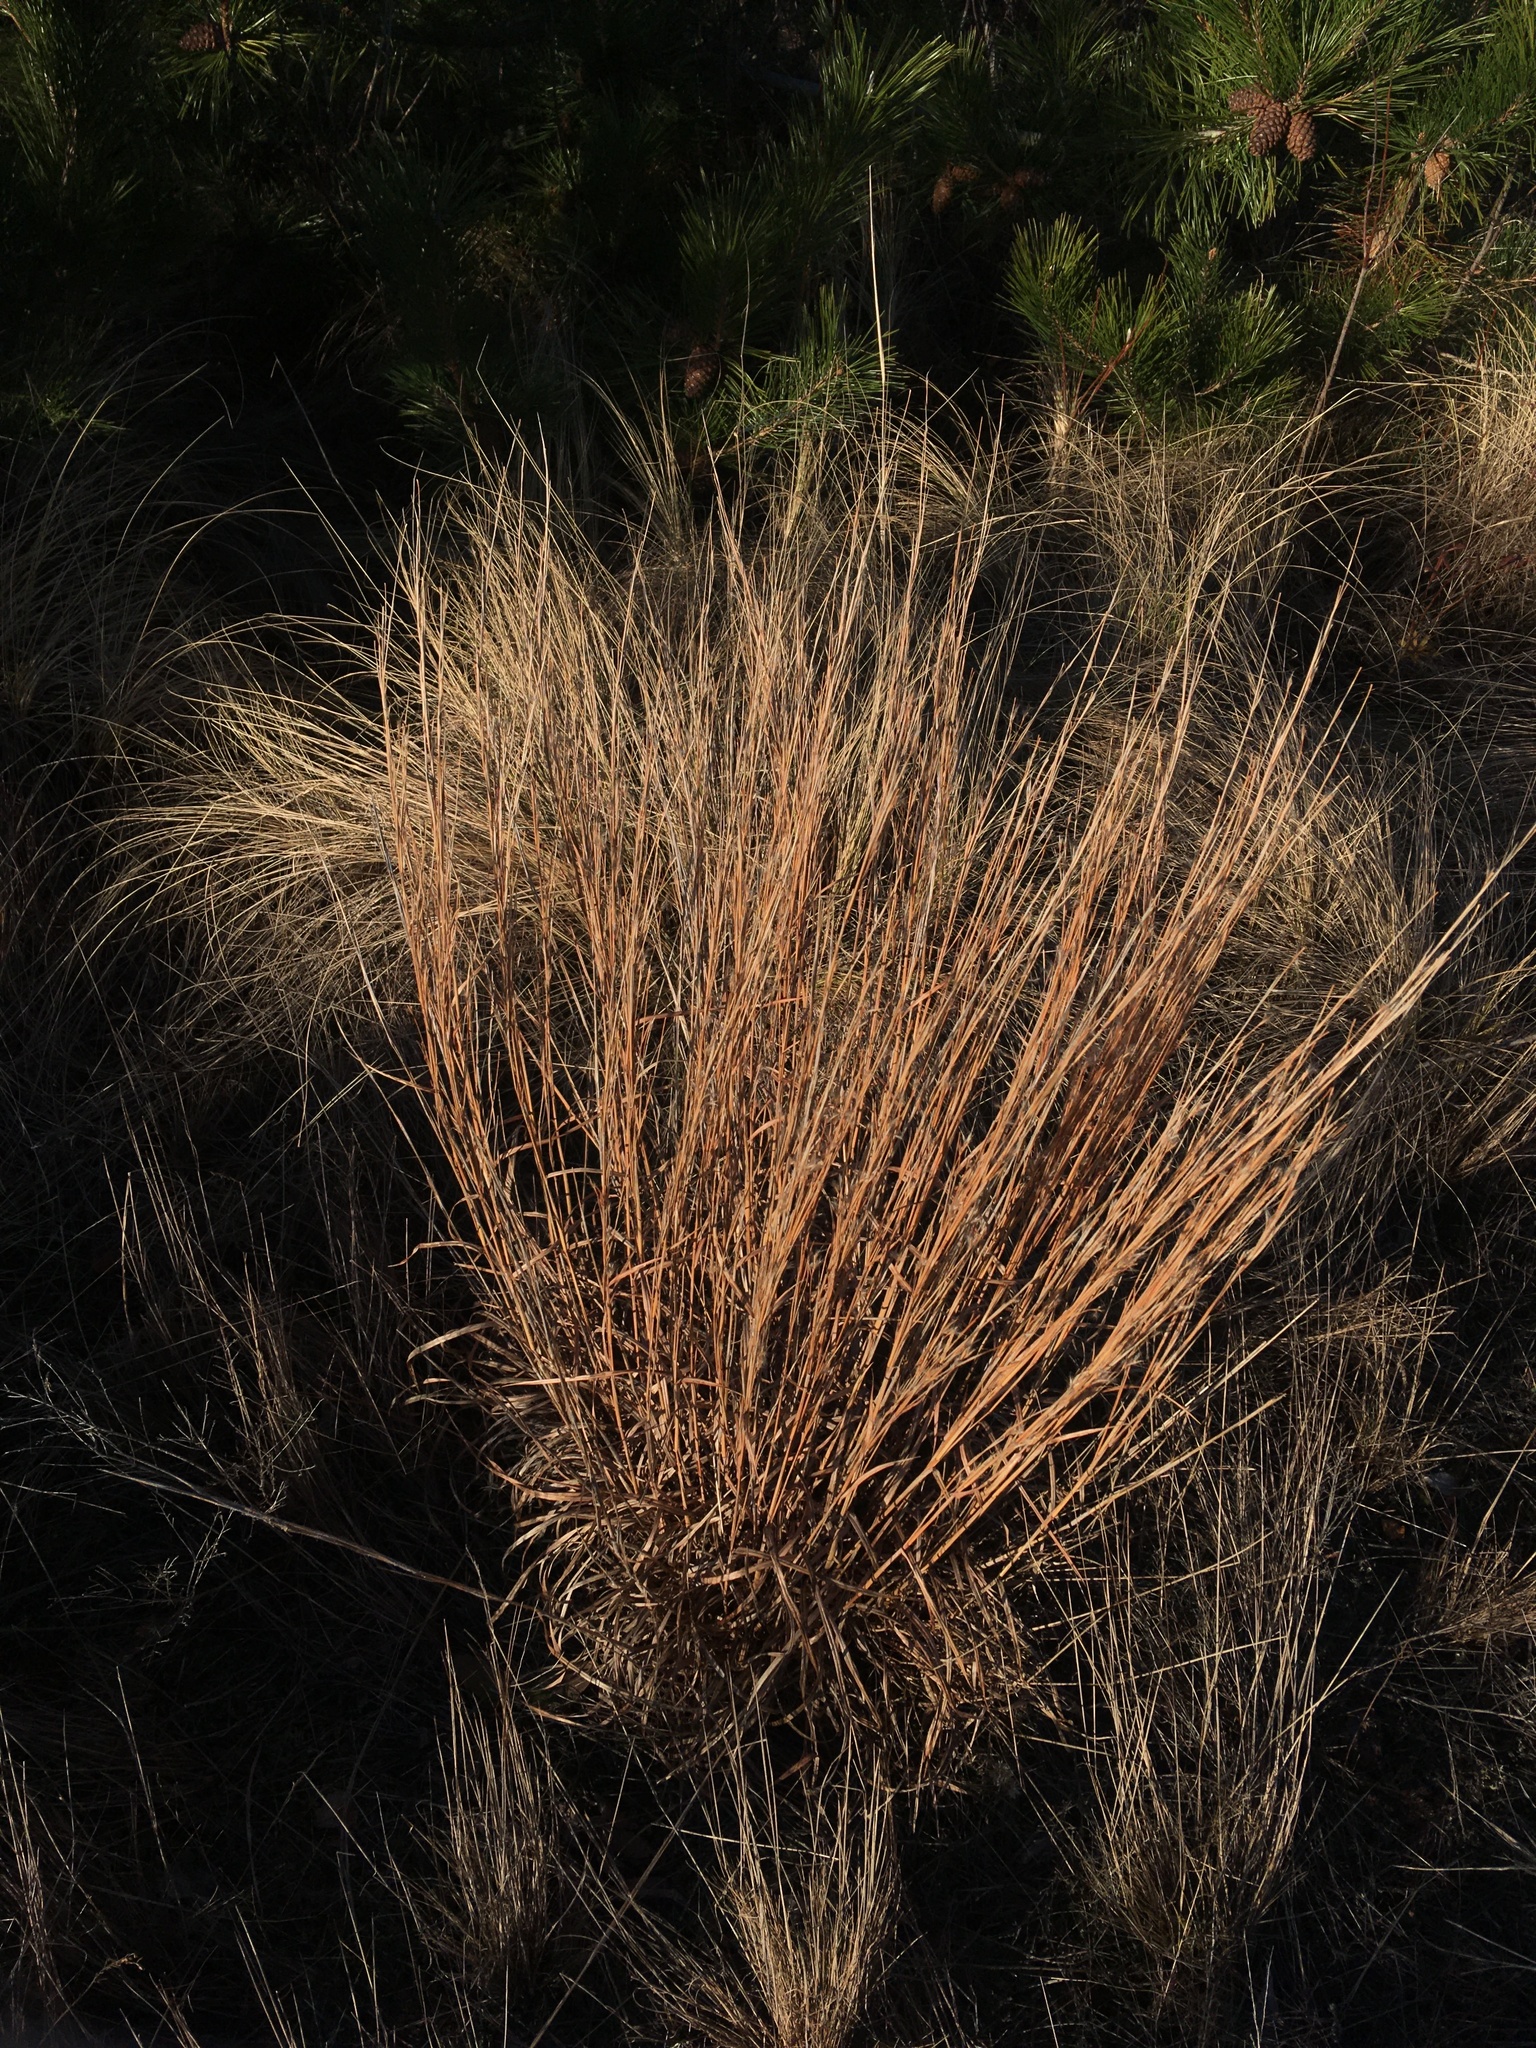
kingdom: Plantae
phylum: Tracheophyta
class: Liliopsida
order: Poales
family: Poaceae
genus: Schizachyrium
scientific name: Schizachyrium scoparium
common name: Little bluestem
